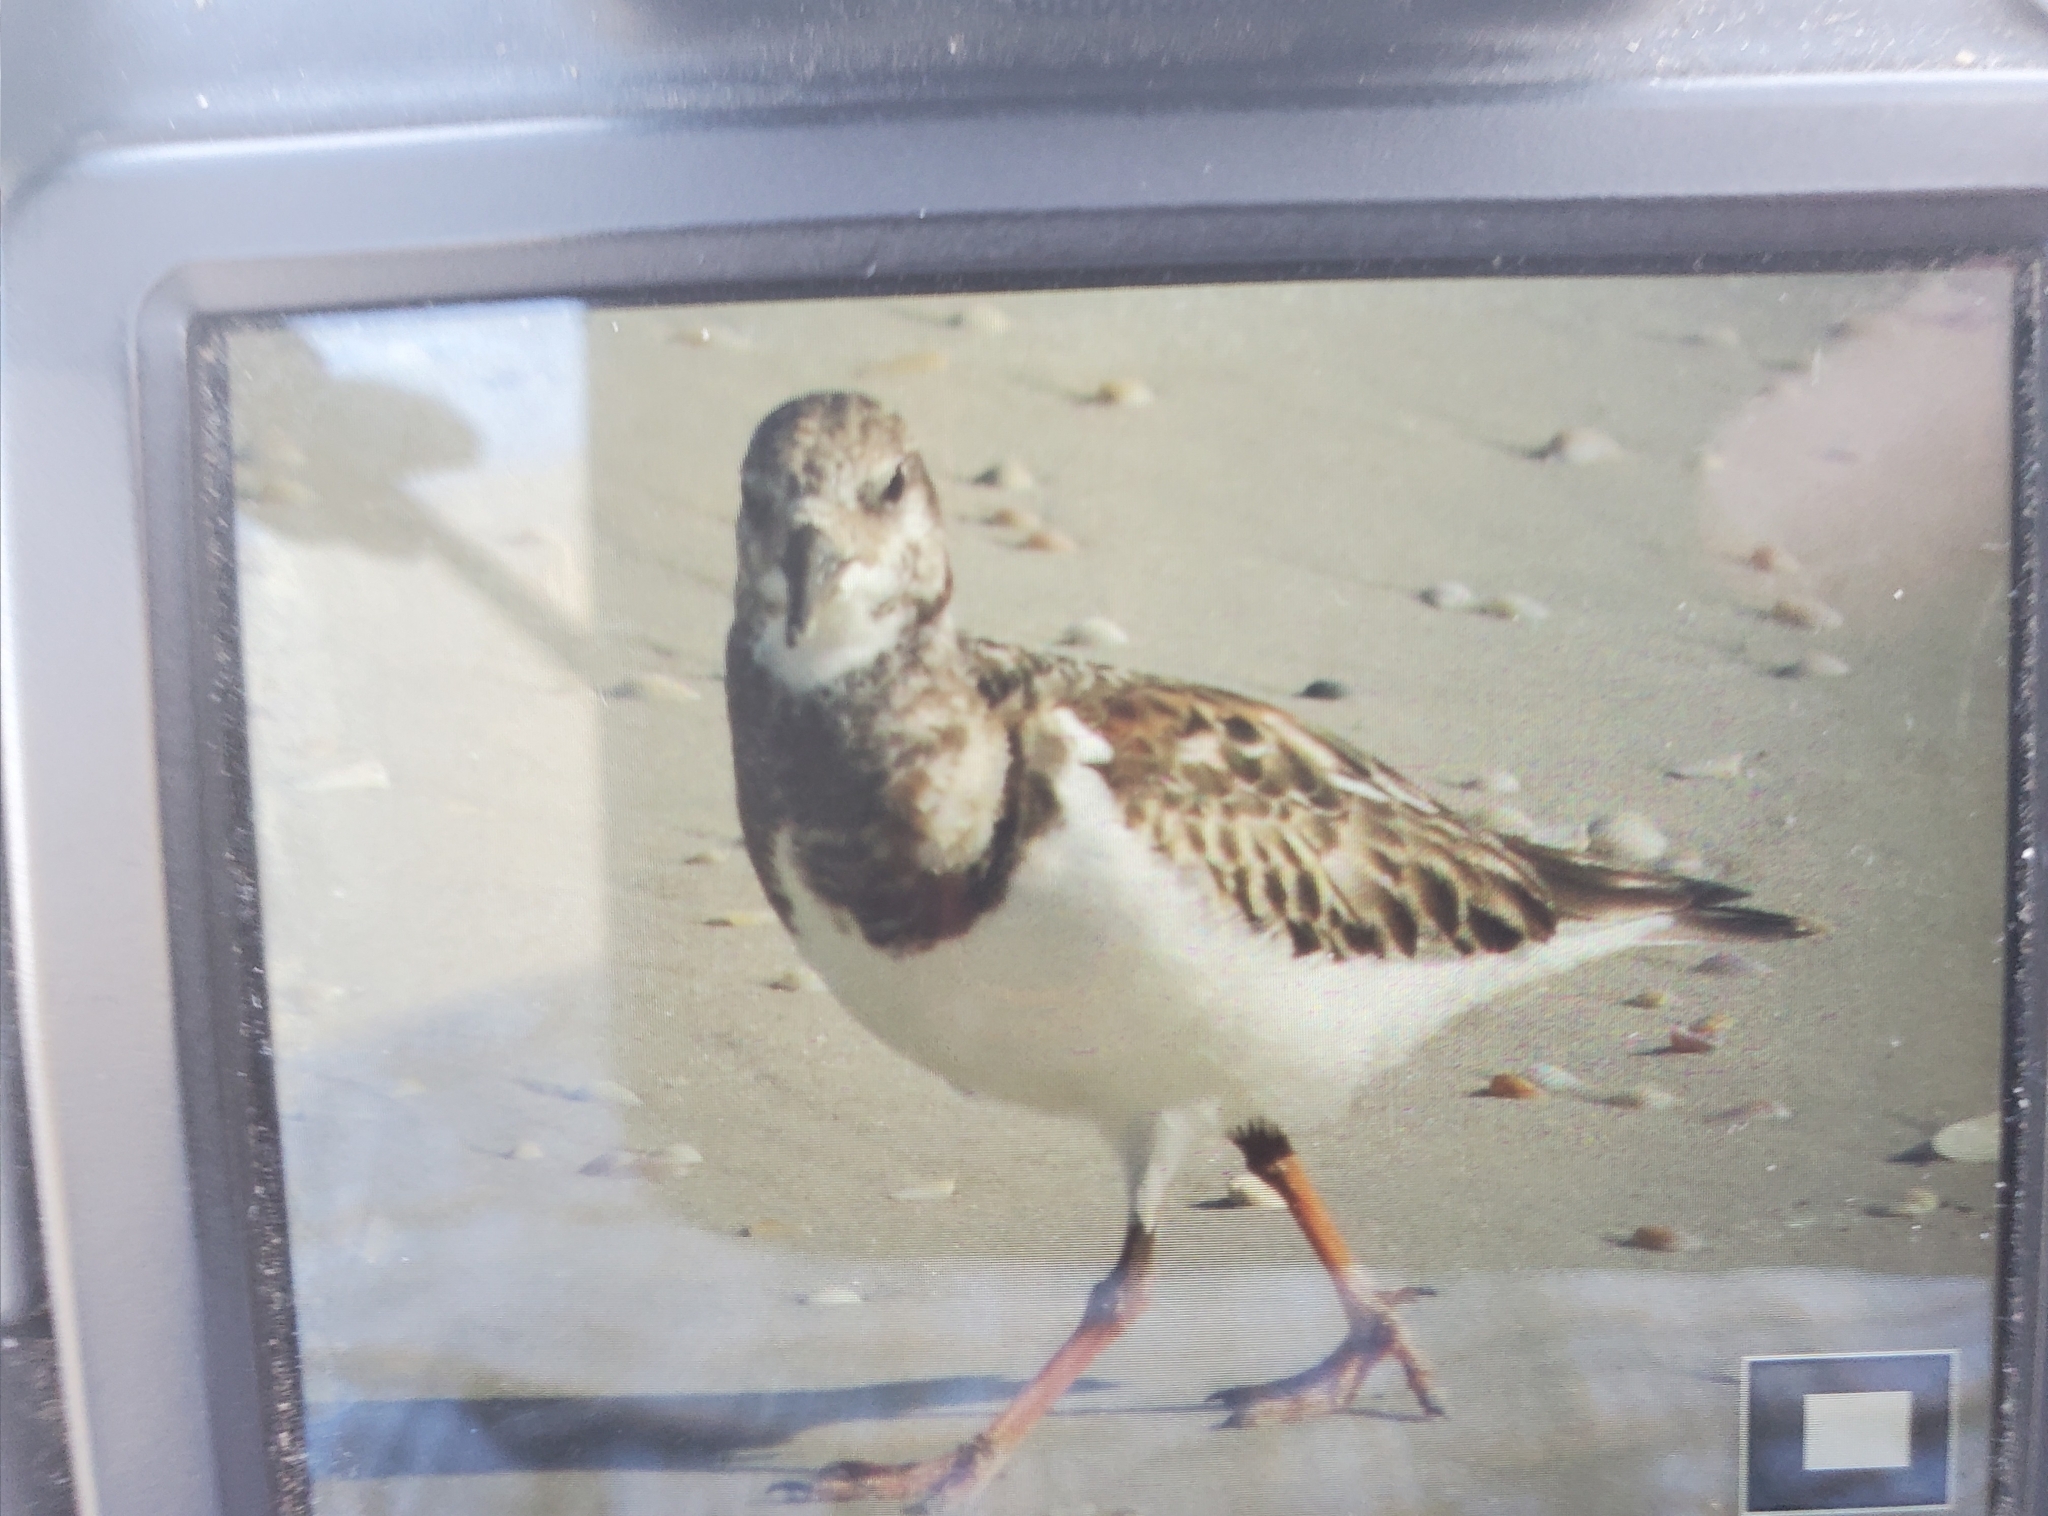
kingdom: Animalia
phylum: Chordata
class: Aves
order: Charadriiformes
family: Scolopacidae
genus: Arenaria
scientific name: Arenaria interpres
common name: Ruddy turnstone
